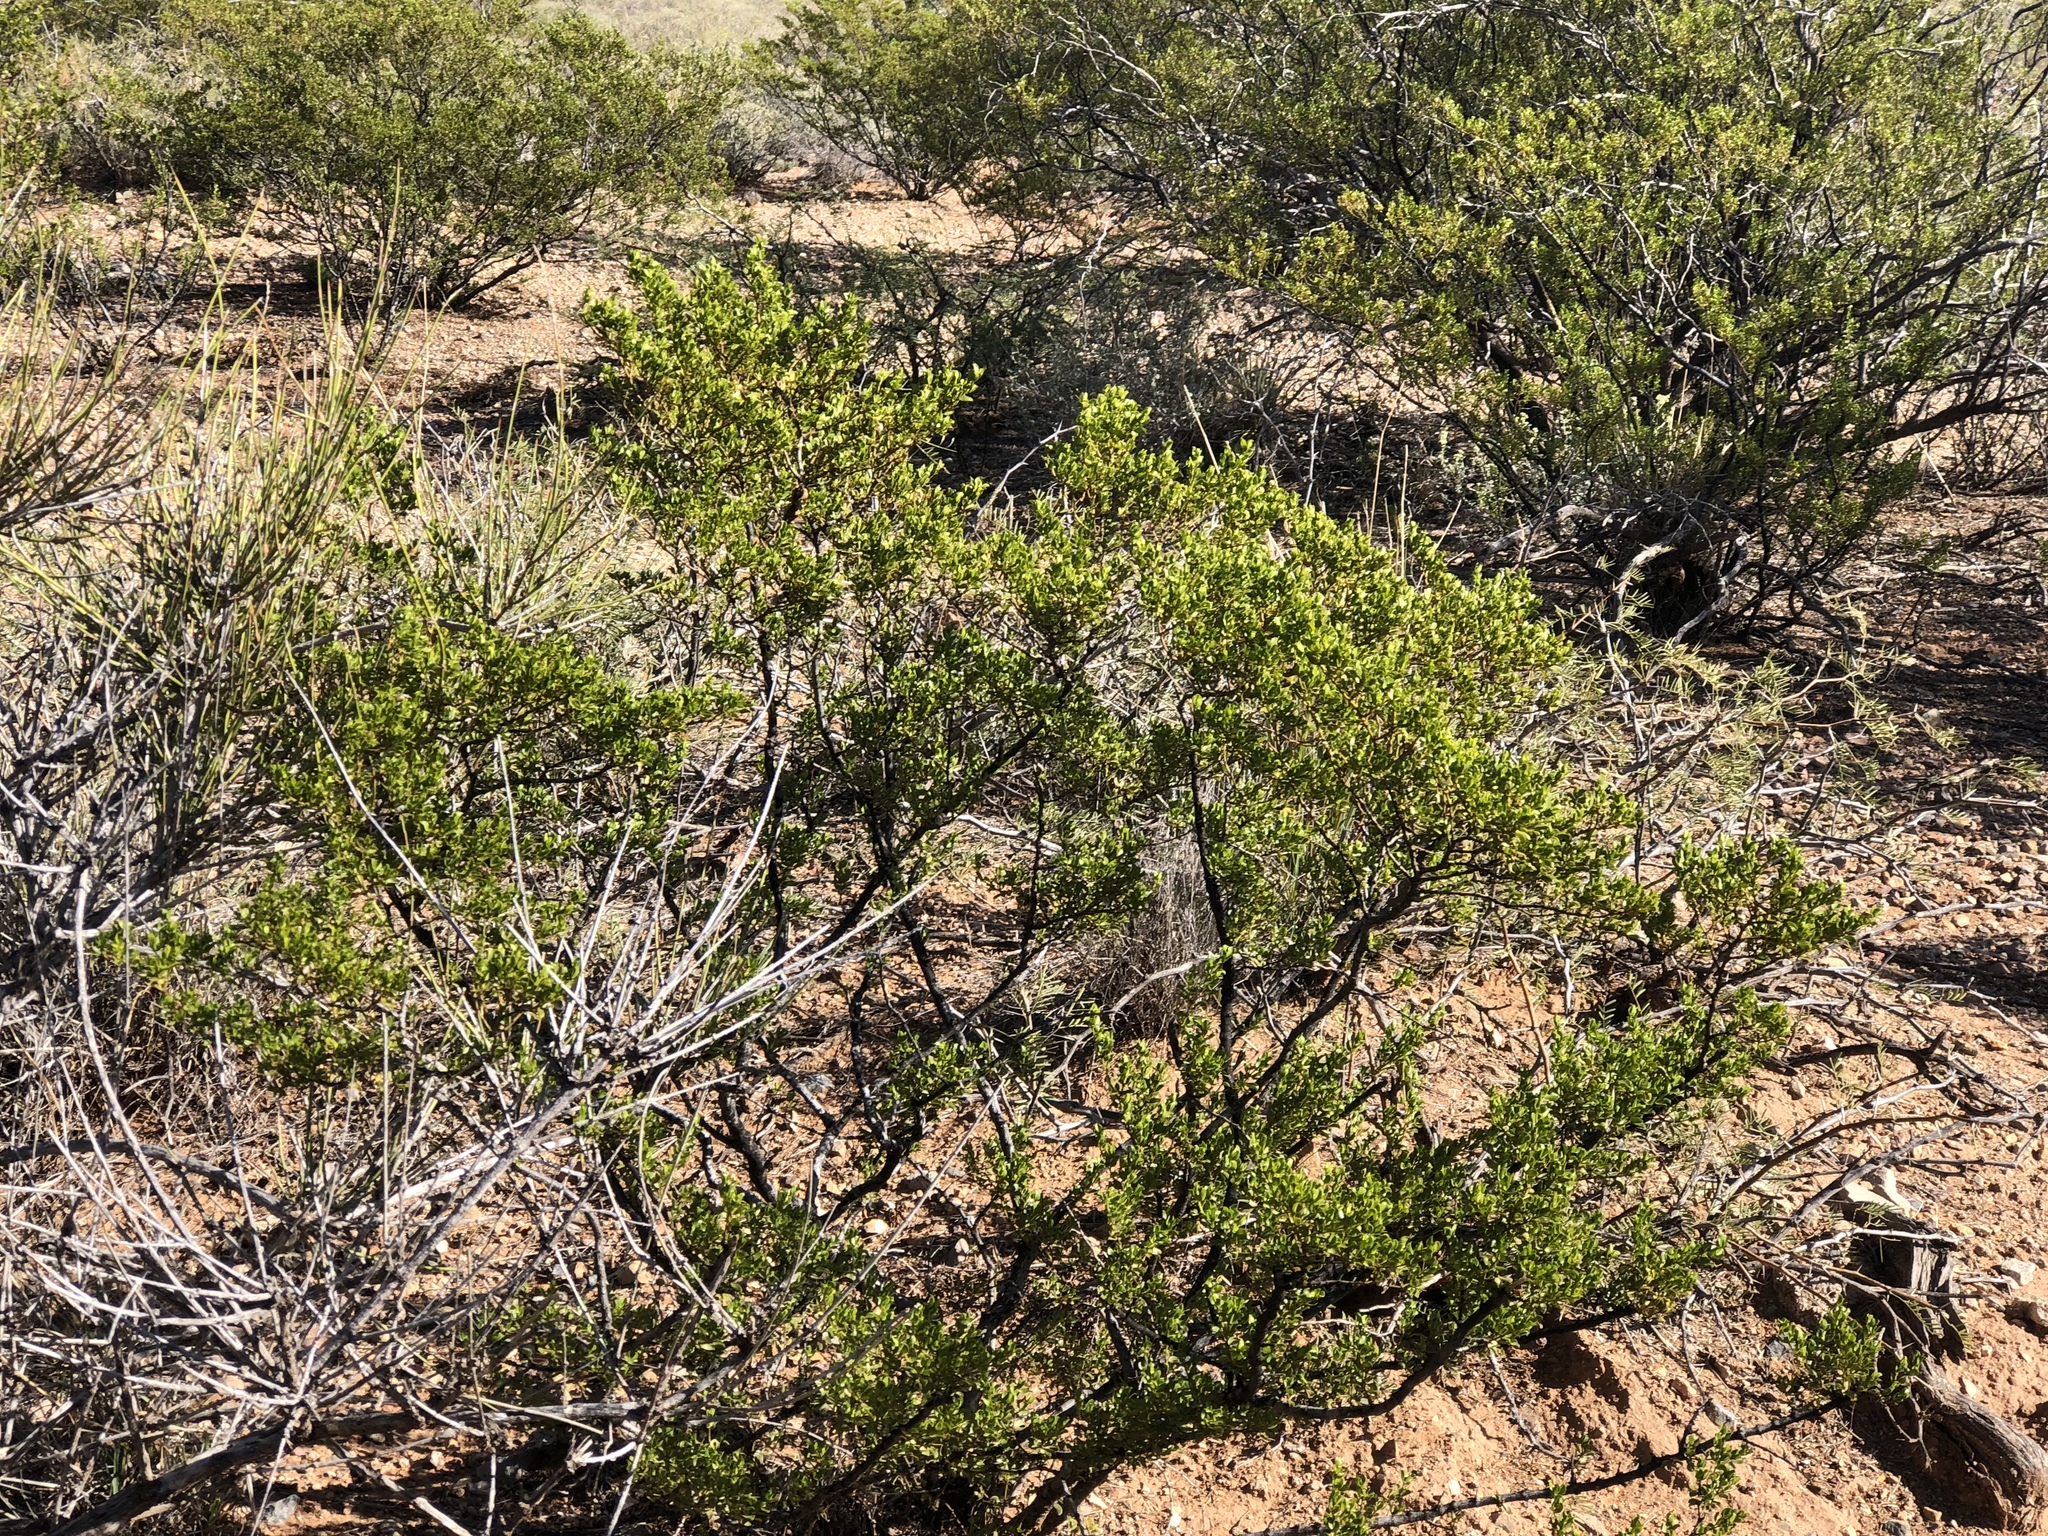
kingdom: Plantae
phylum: Tracheophyta
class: Magnoliopsida
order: Zygophyllales
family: Zygophyllaceae
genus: Larrea
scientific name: Larrea tridentata
